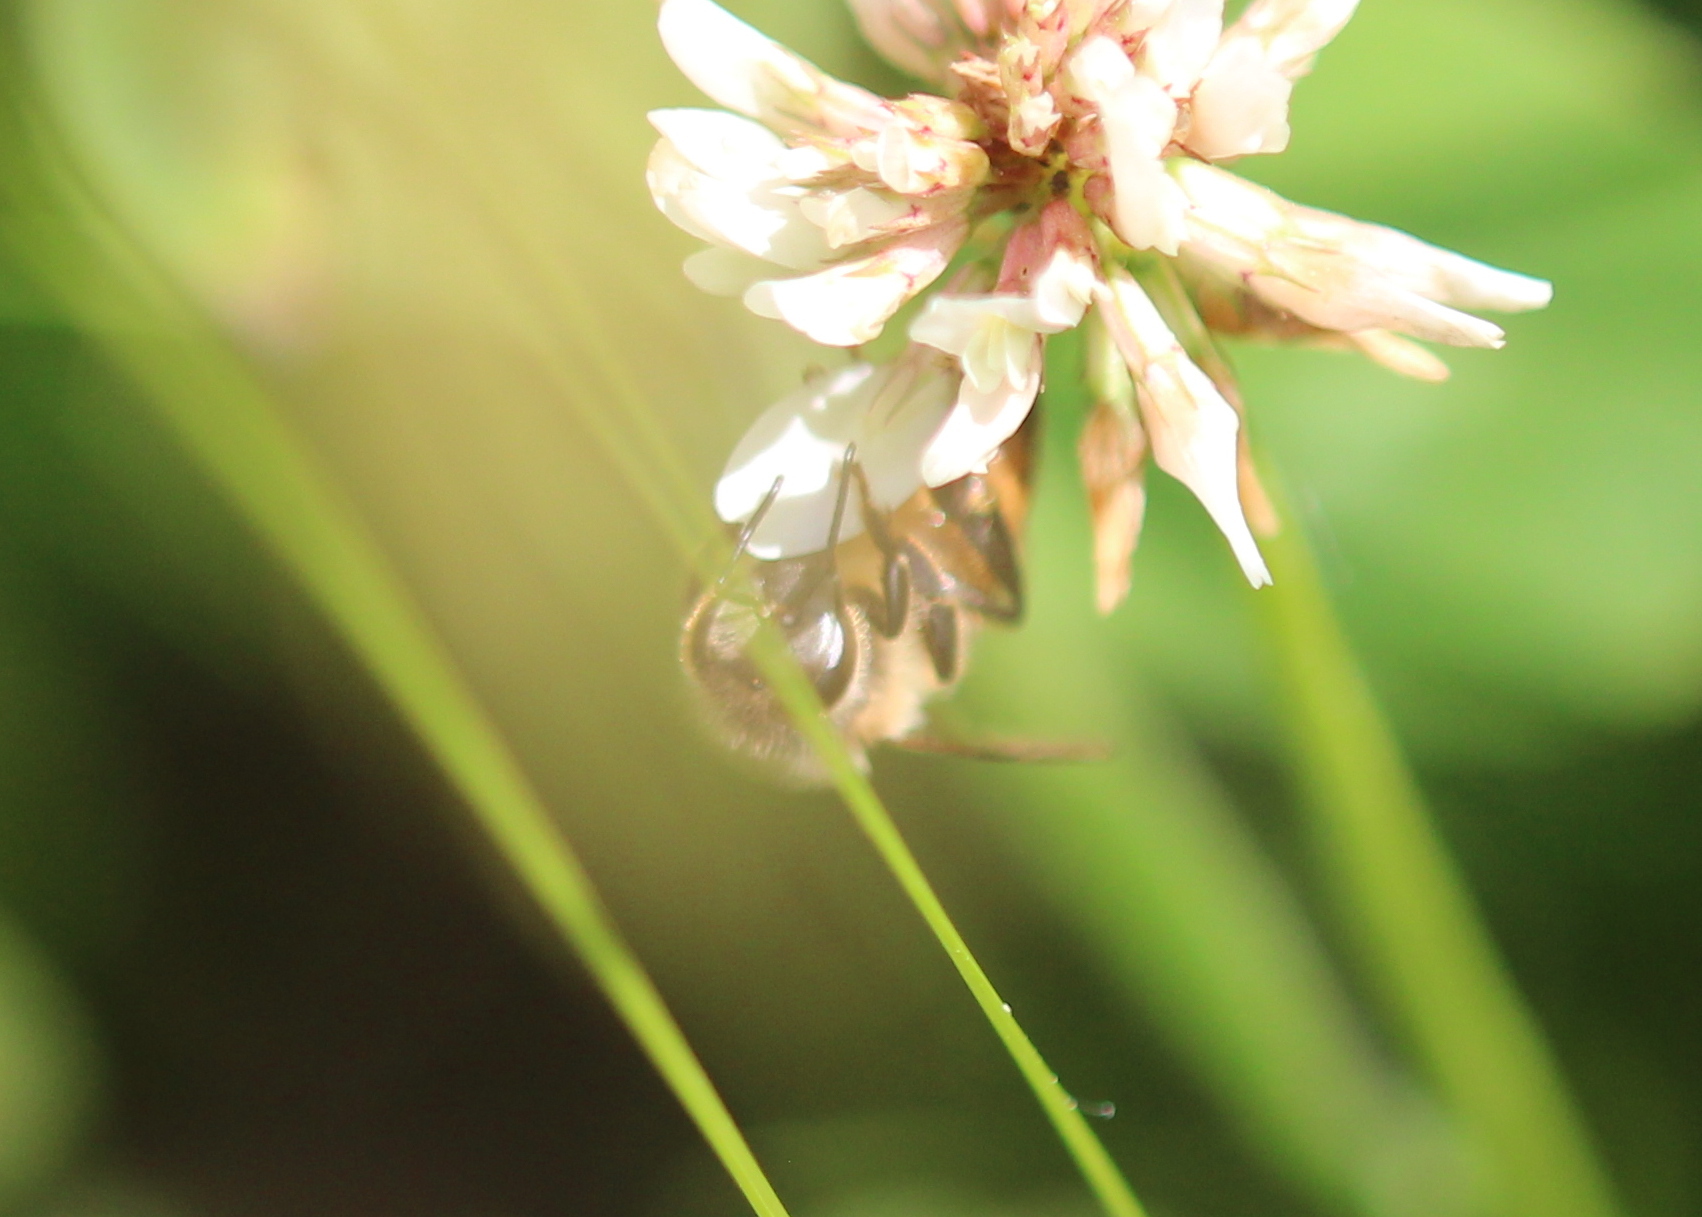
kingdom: Animalia
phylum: Arthropoda
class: Insecta
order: Hymenoptera
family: Apidae
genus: Apis
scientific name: Apis mellifera
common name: Honey bee
